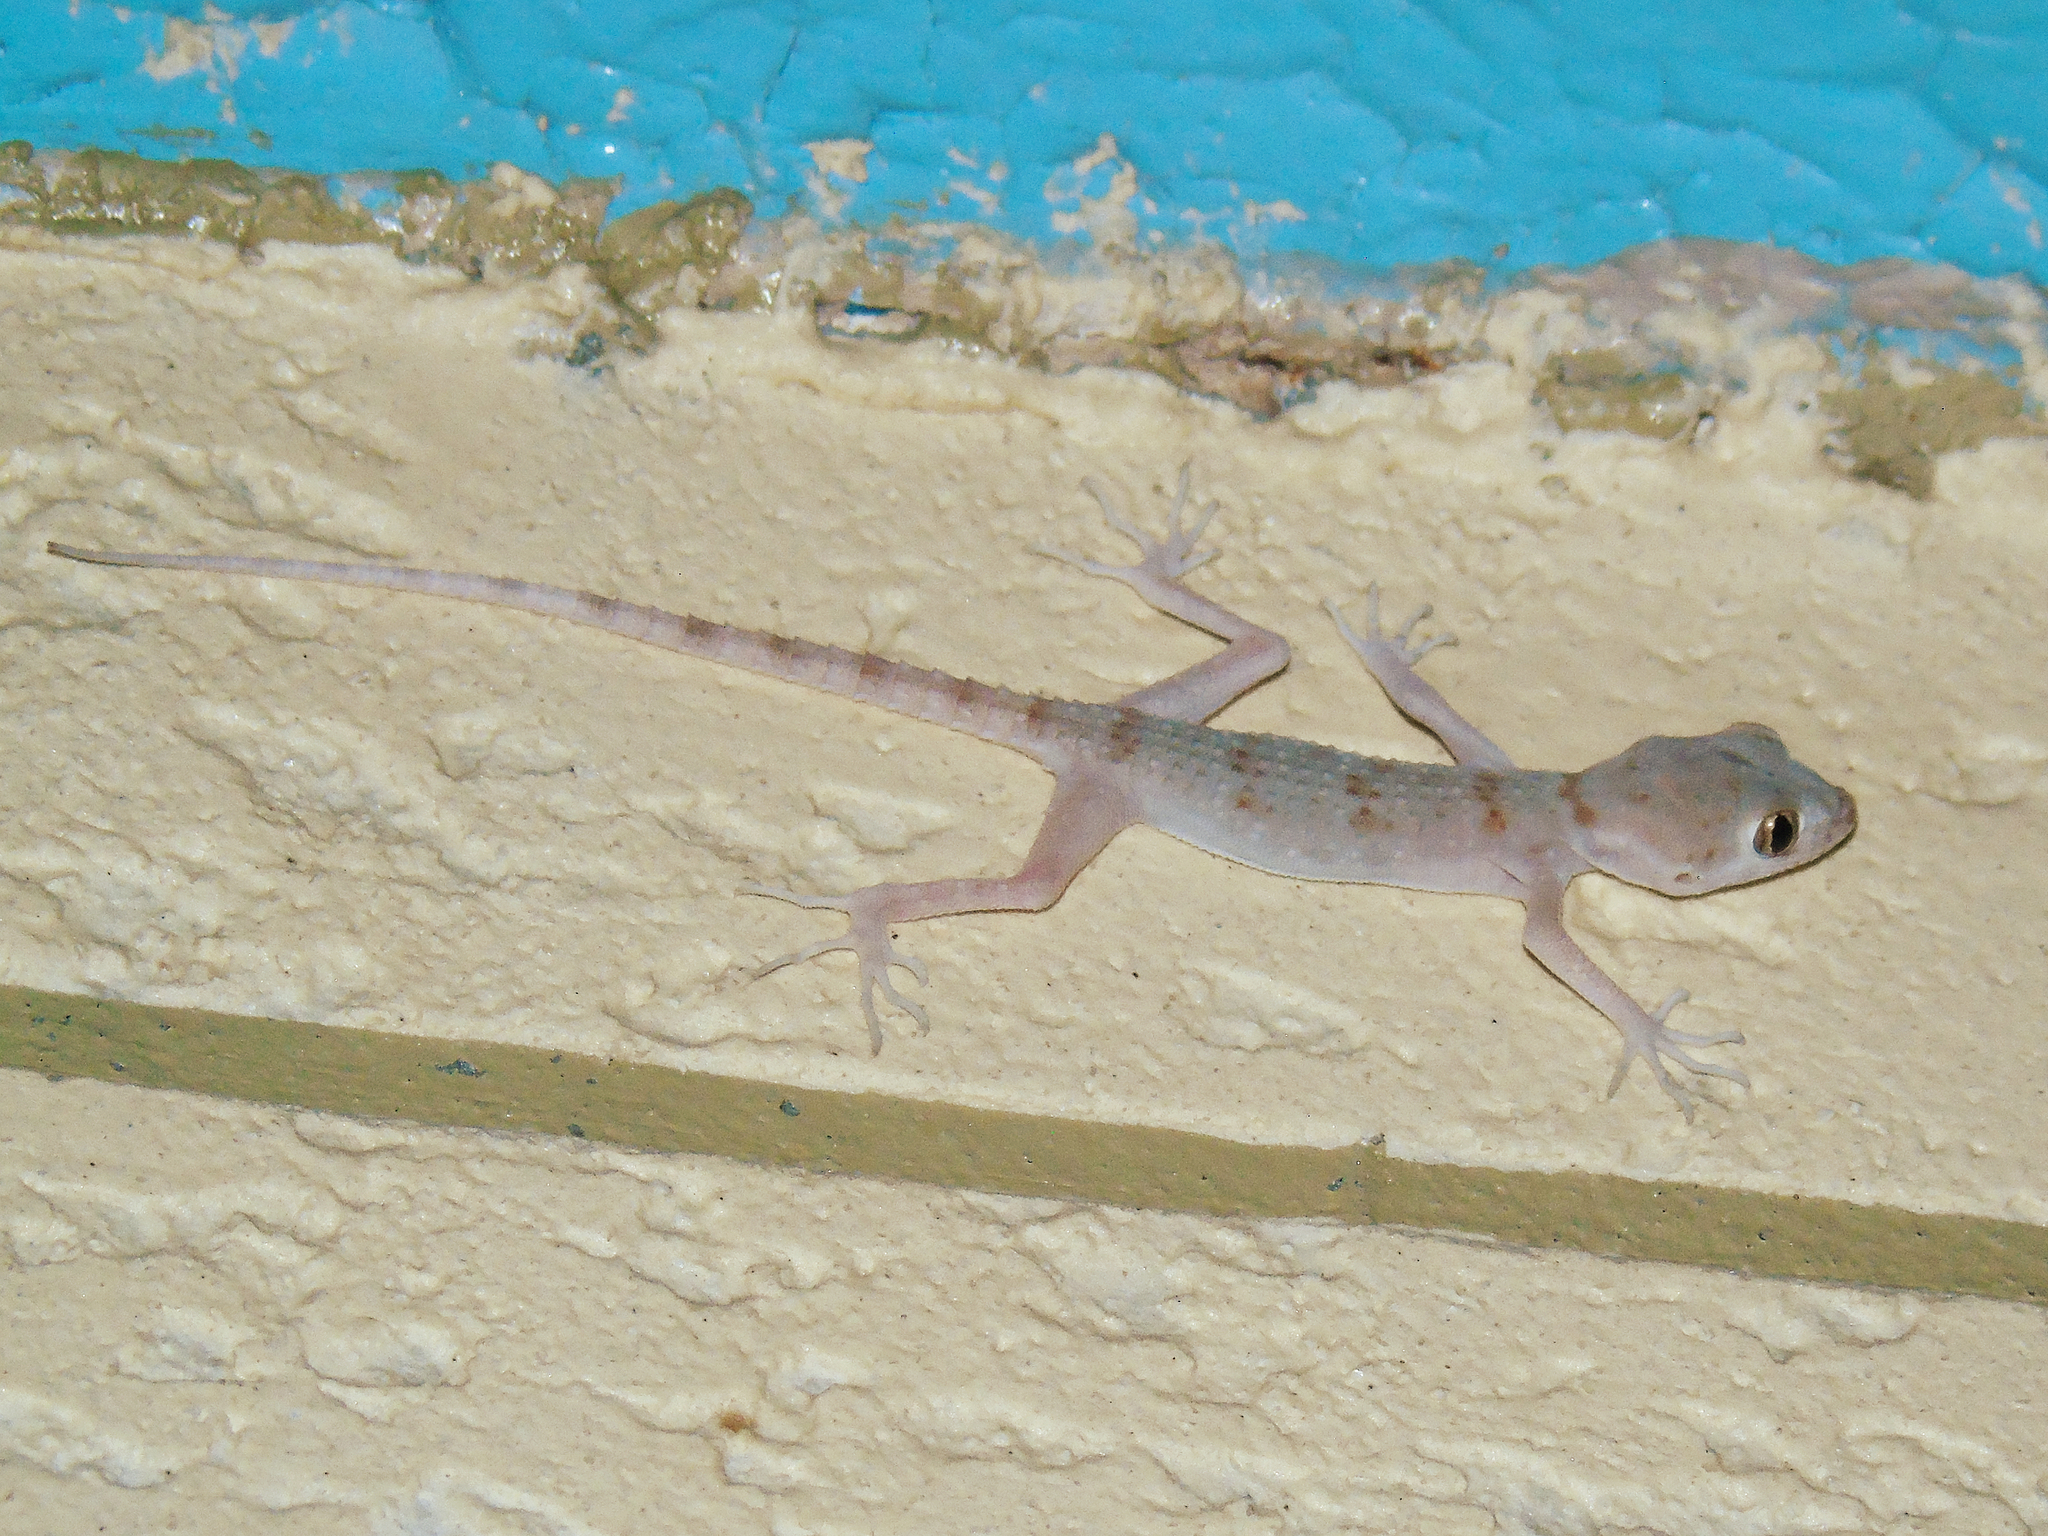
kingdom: Animalia
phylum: Chordata
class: Squamata
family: Gekkonidae
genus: Tenuidactylus
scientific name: Tenuidactylus bogdanovi
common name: Bogdanov’s thin-toed gecko
